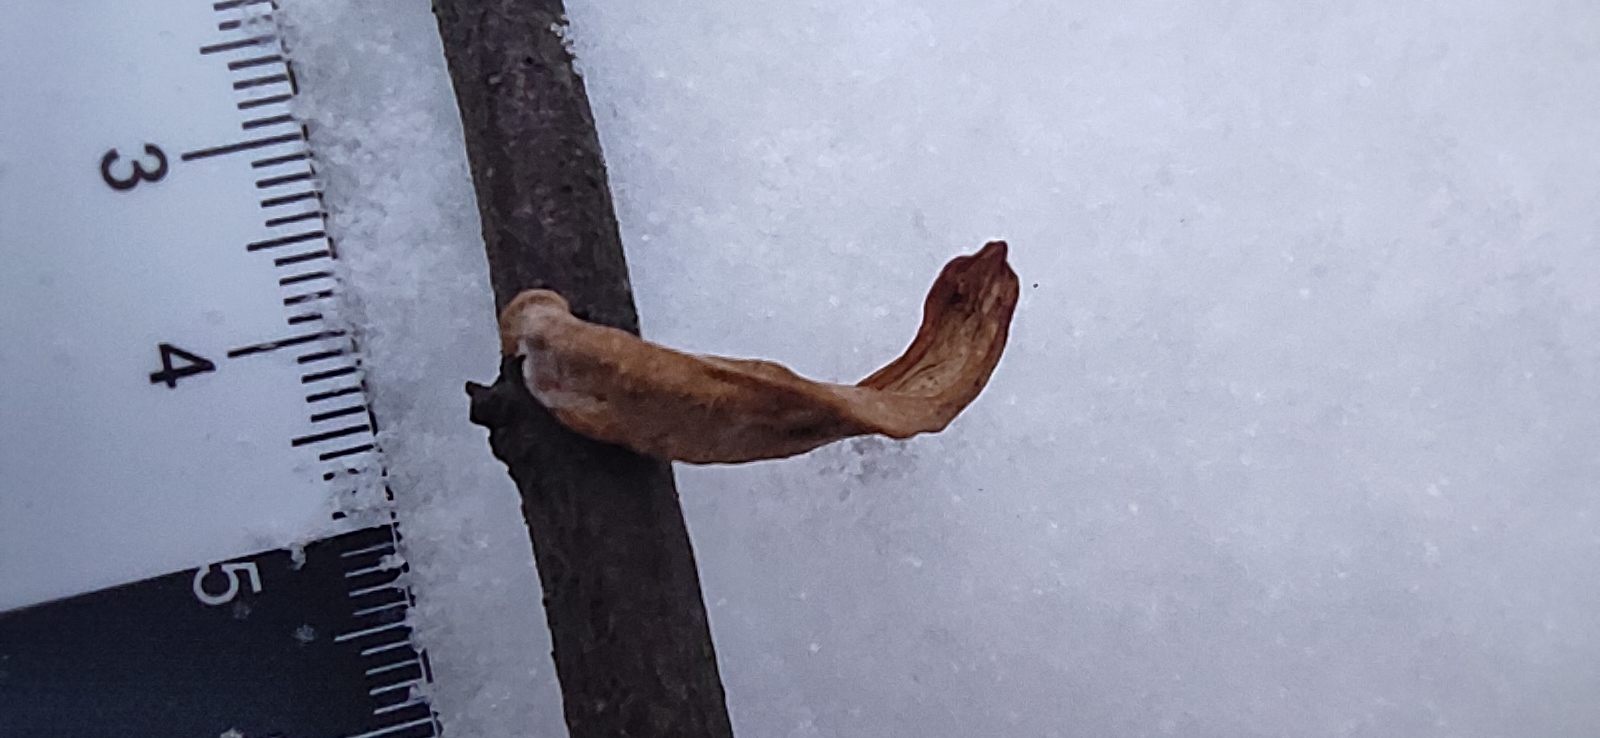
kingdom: Fungi
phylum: Basidiomycota
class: Agaricomycetes
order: Agaricales
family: Typhulaceae
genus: Typhula
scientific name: Typhula contorta
